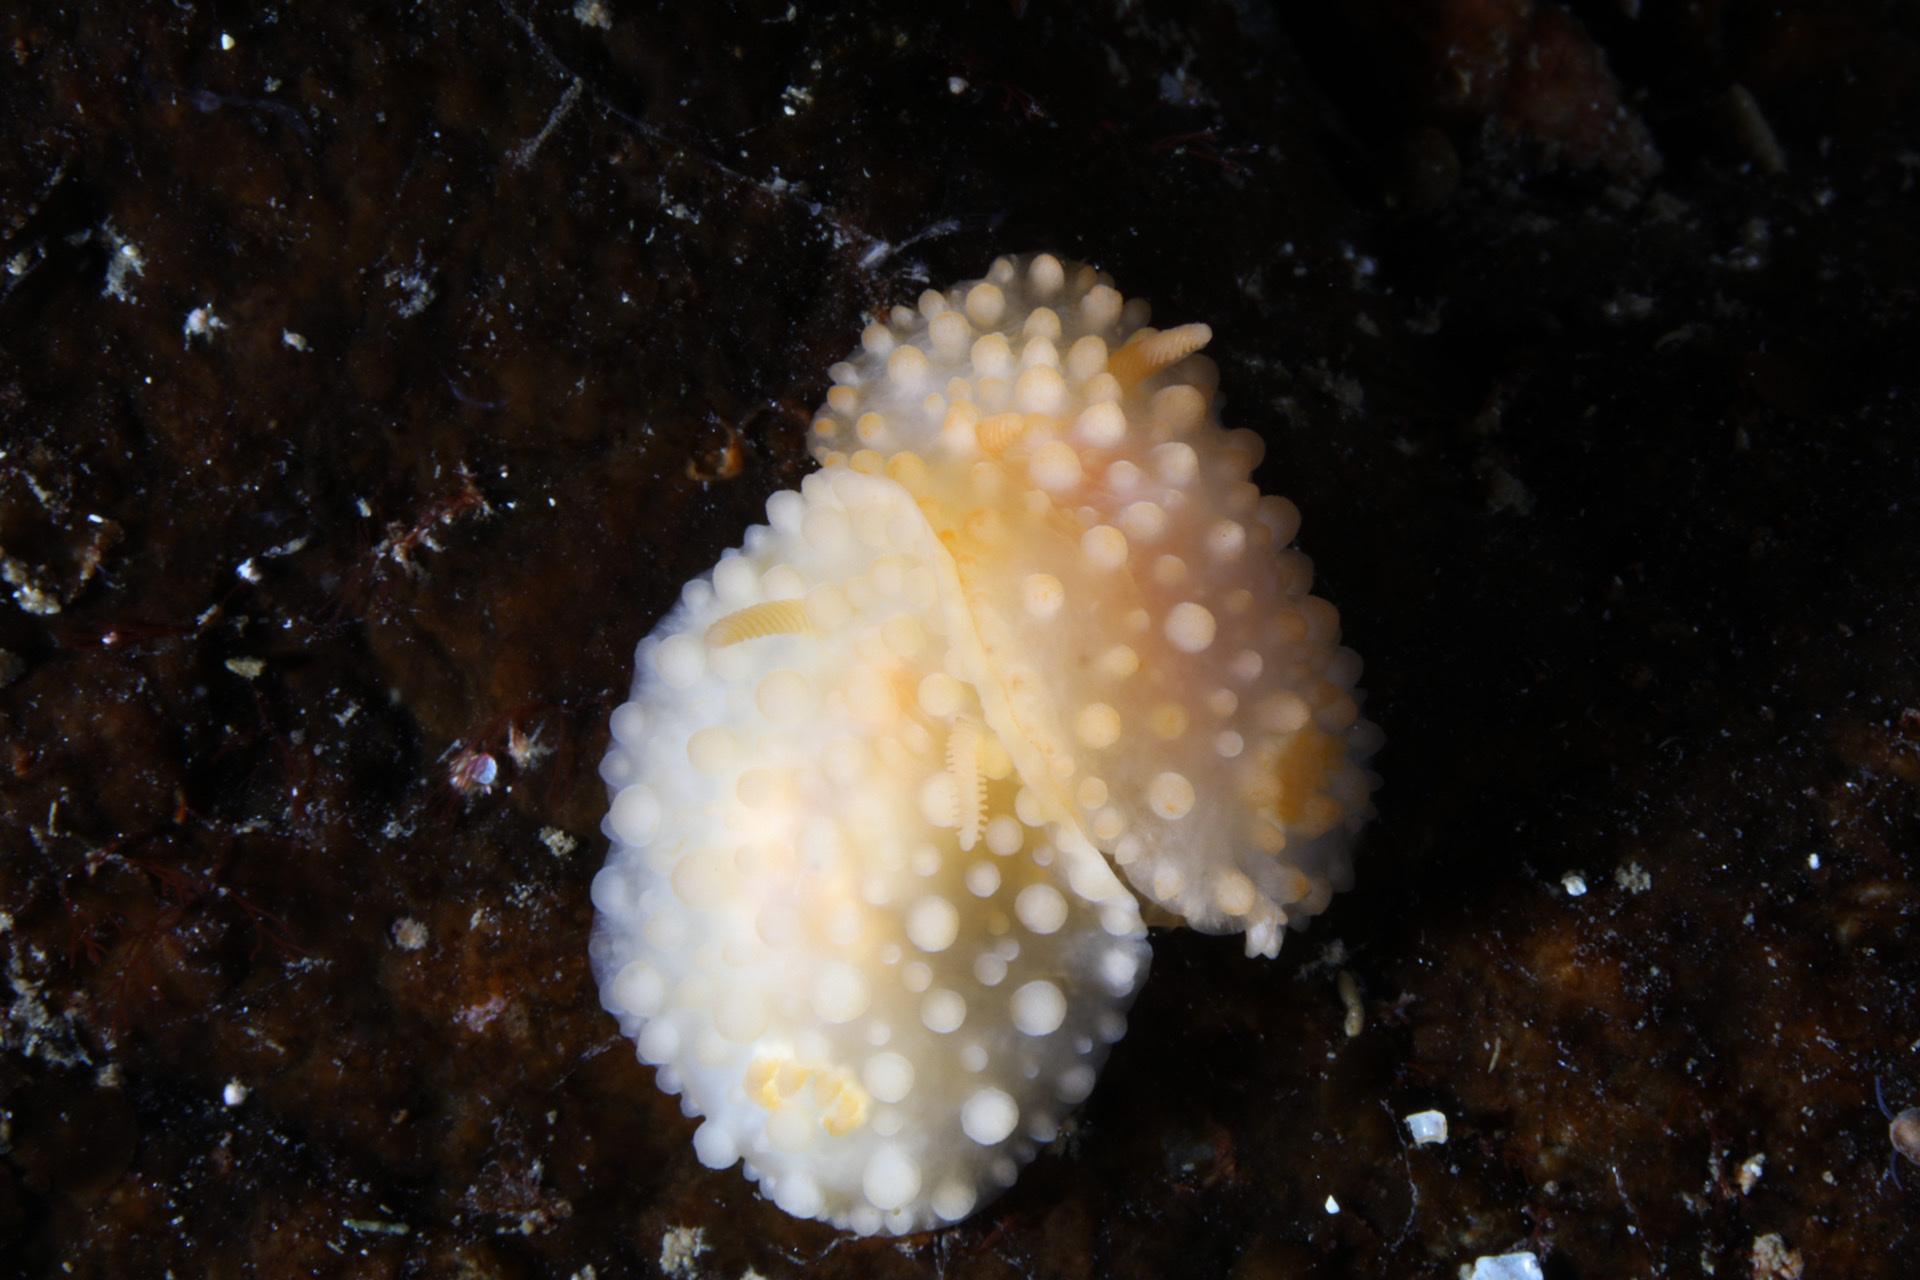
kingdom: Animalia
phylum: Mollusca
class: Gastropoda
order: Nudibranchia
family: Onchidorididae
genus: Adalaria
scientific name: Adalaria proxima
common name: False doris
